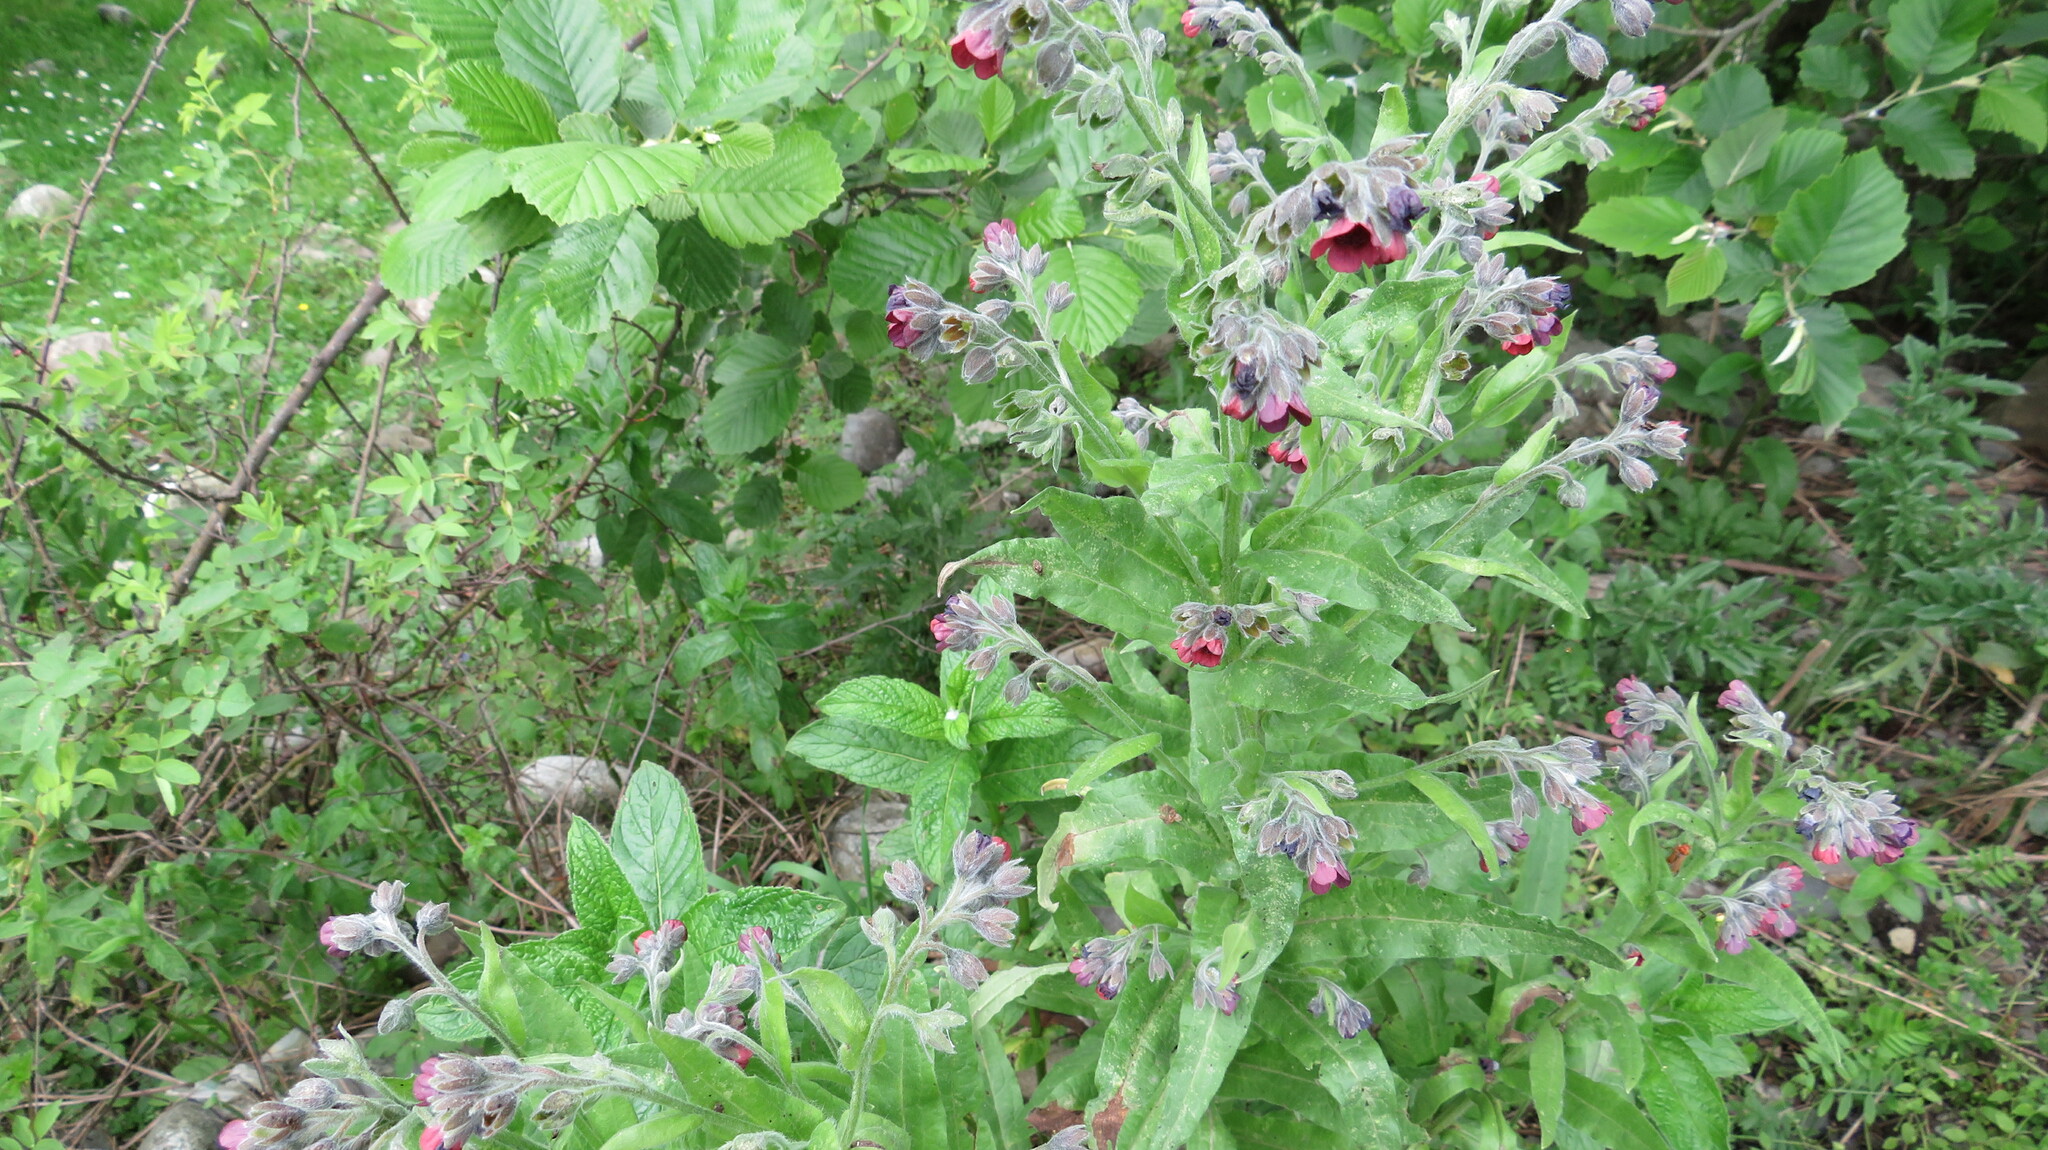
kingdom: Plantae
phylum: Tracheophyta
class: Magnoliopsida
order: Boraginales
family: Boraginaceae
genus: Cynoglossum
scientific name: Cynoglossum officinale
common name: Hound's-tongue
